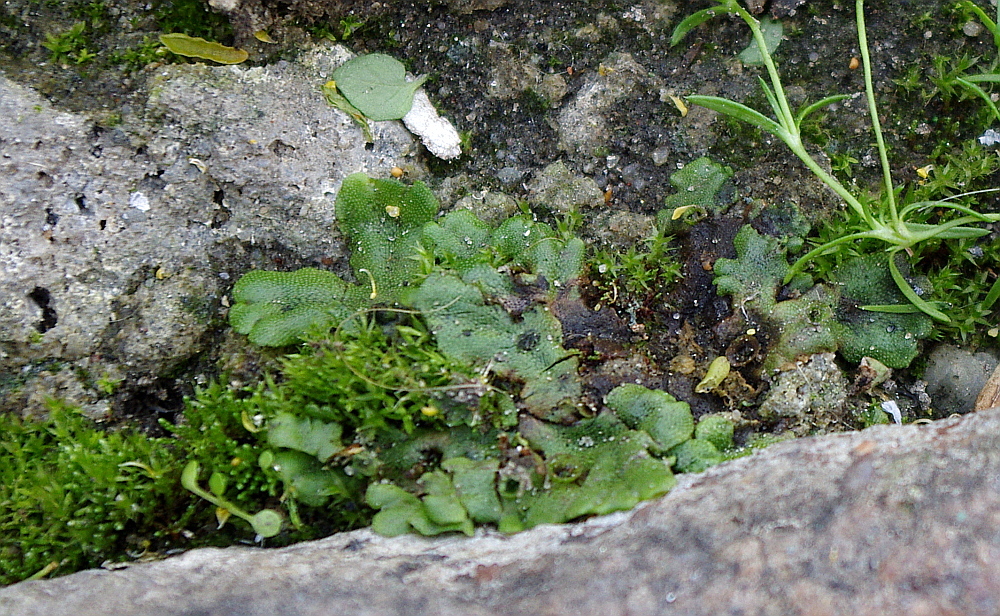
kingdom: Plantae
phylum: Marchantiophyta
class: Marchantiopsida
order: Marchantiales
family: Marchantiaceae
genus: Marchantia
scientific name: Marchantia polymorpha
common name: Common liverwort
